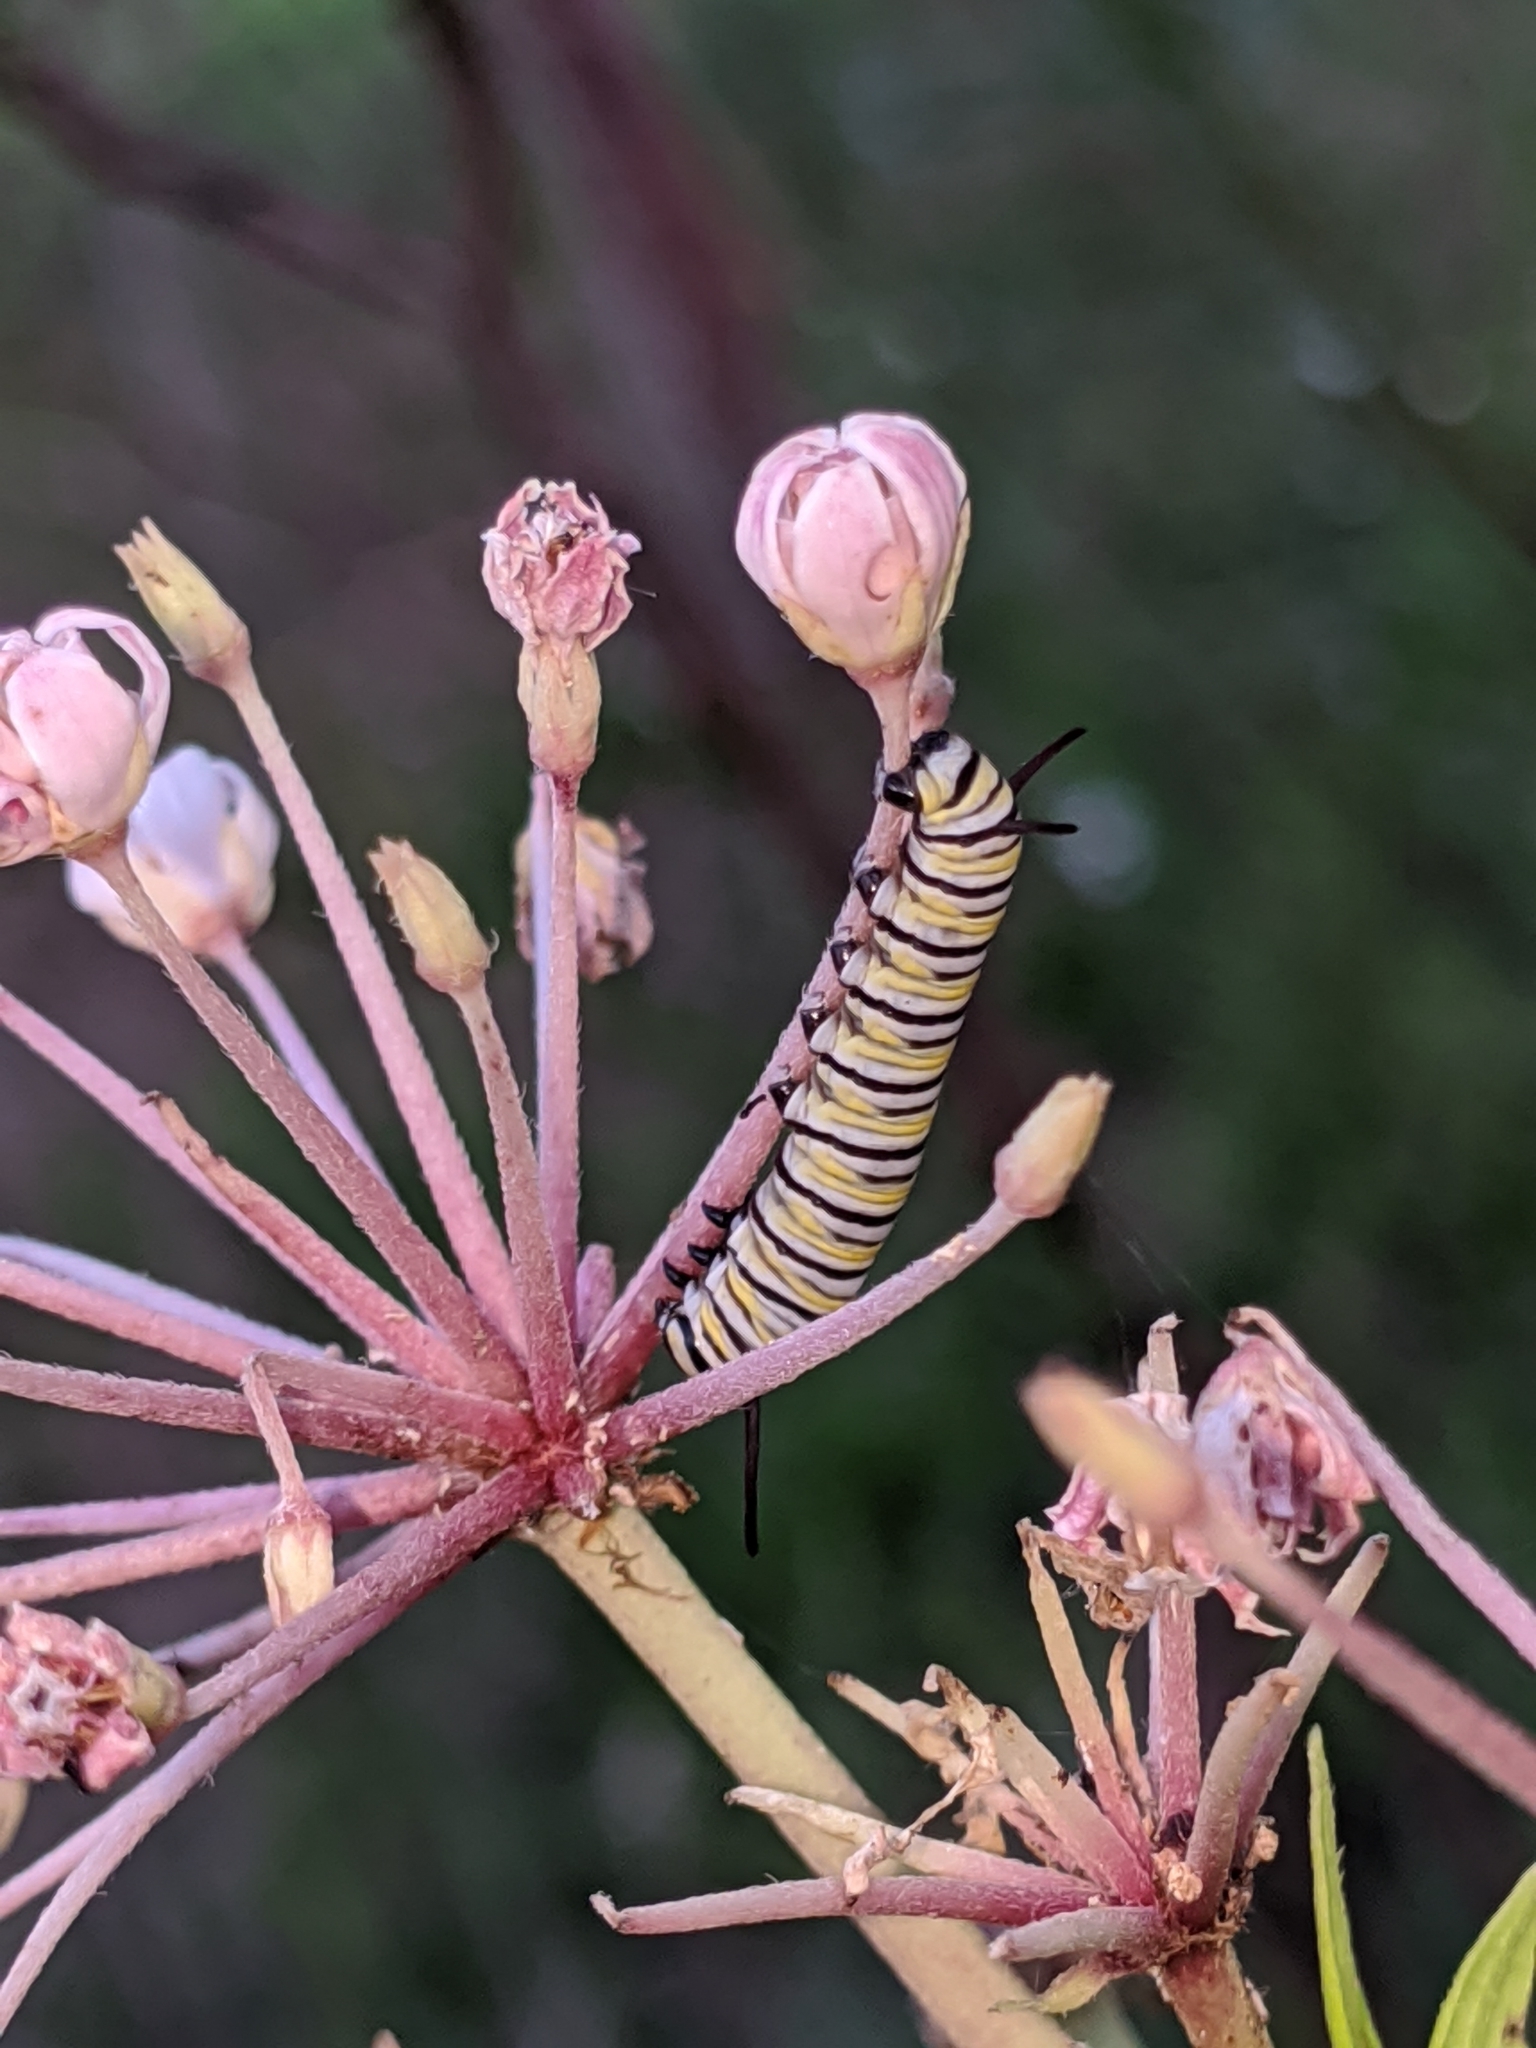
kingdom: Animalia
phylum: Arthropoda
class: Insecta
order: Lepidoptera
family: Nymphalidae
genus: Danaus
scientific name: Danaus plexippus
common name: Monarch
